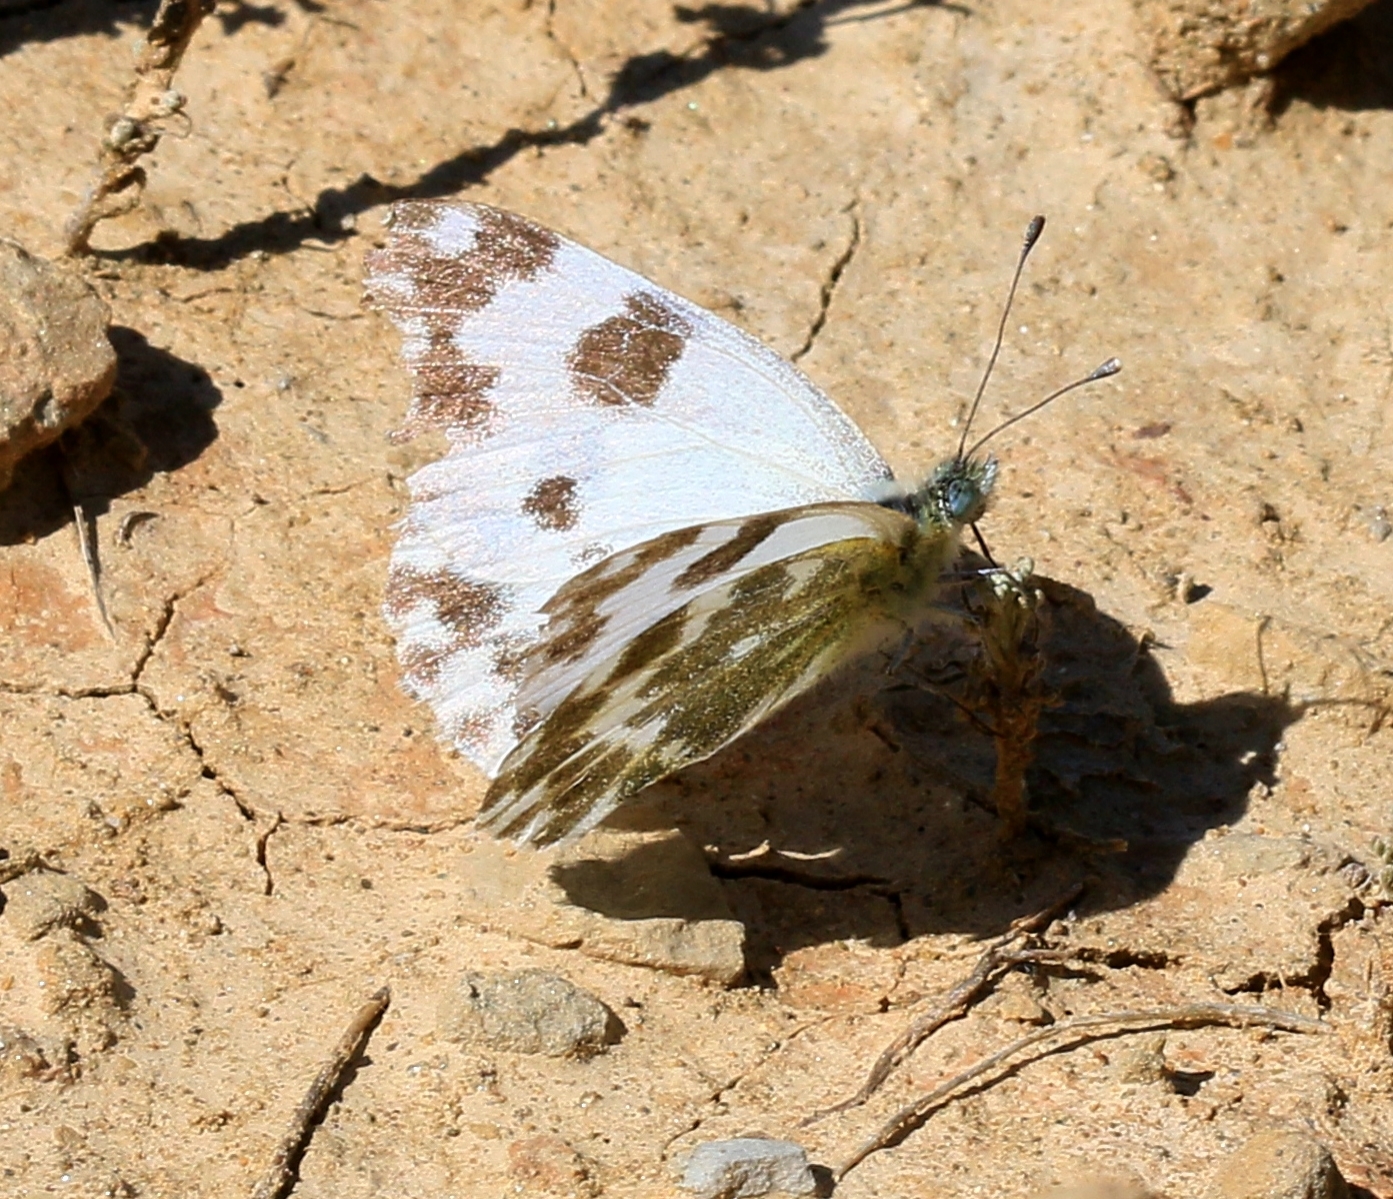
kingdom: Animalia
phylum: Arthropoda
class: Insecta
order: Lepidoptera
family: Pieridae
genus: Pontia
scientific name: Pontia daplidice
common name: Bath white
